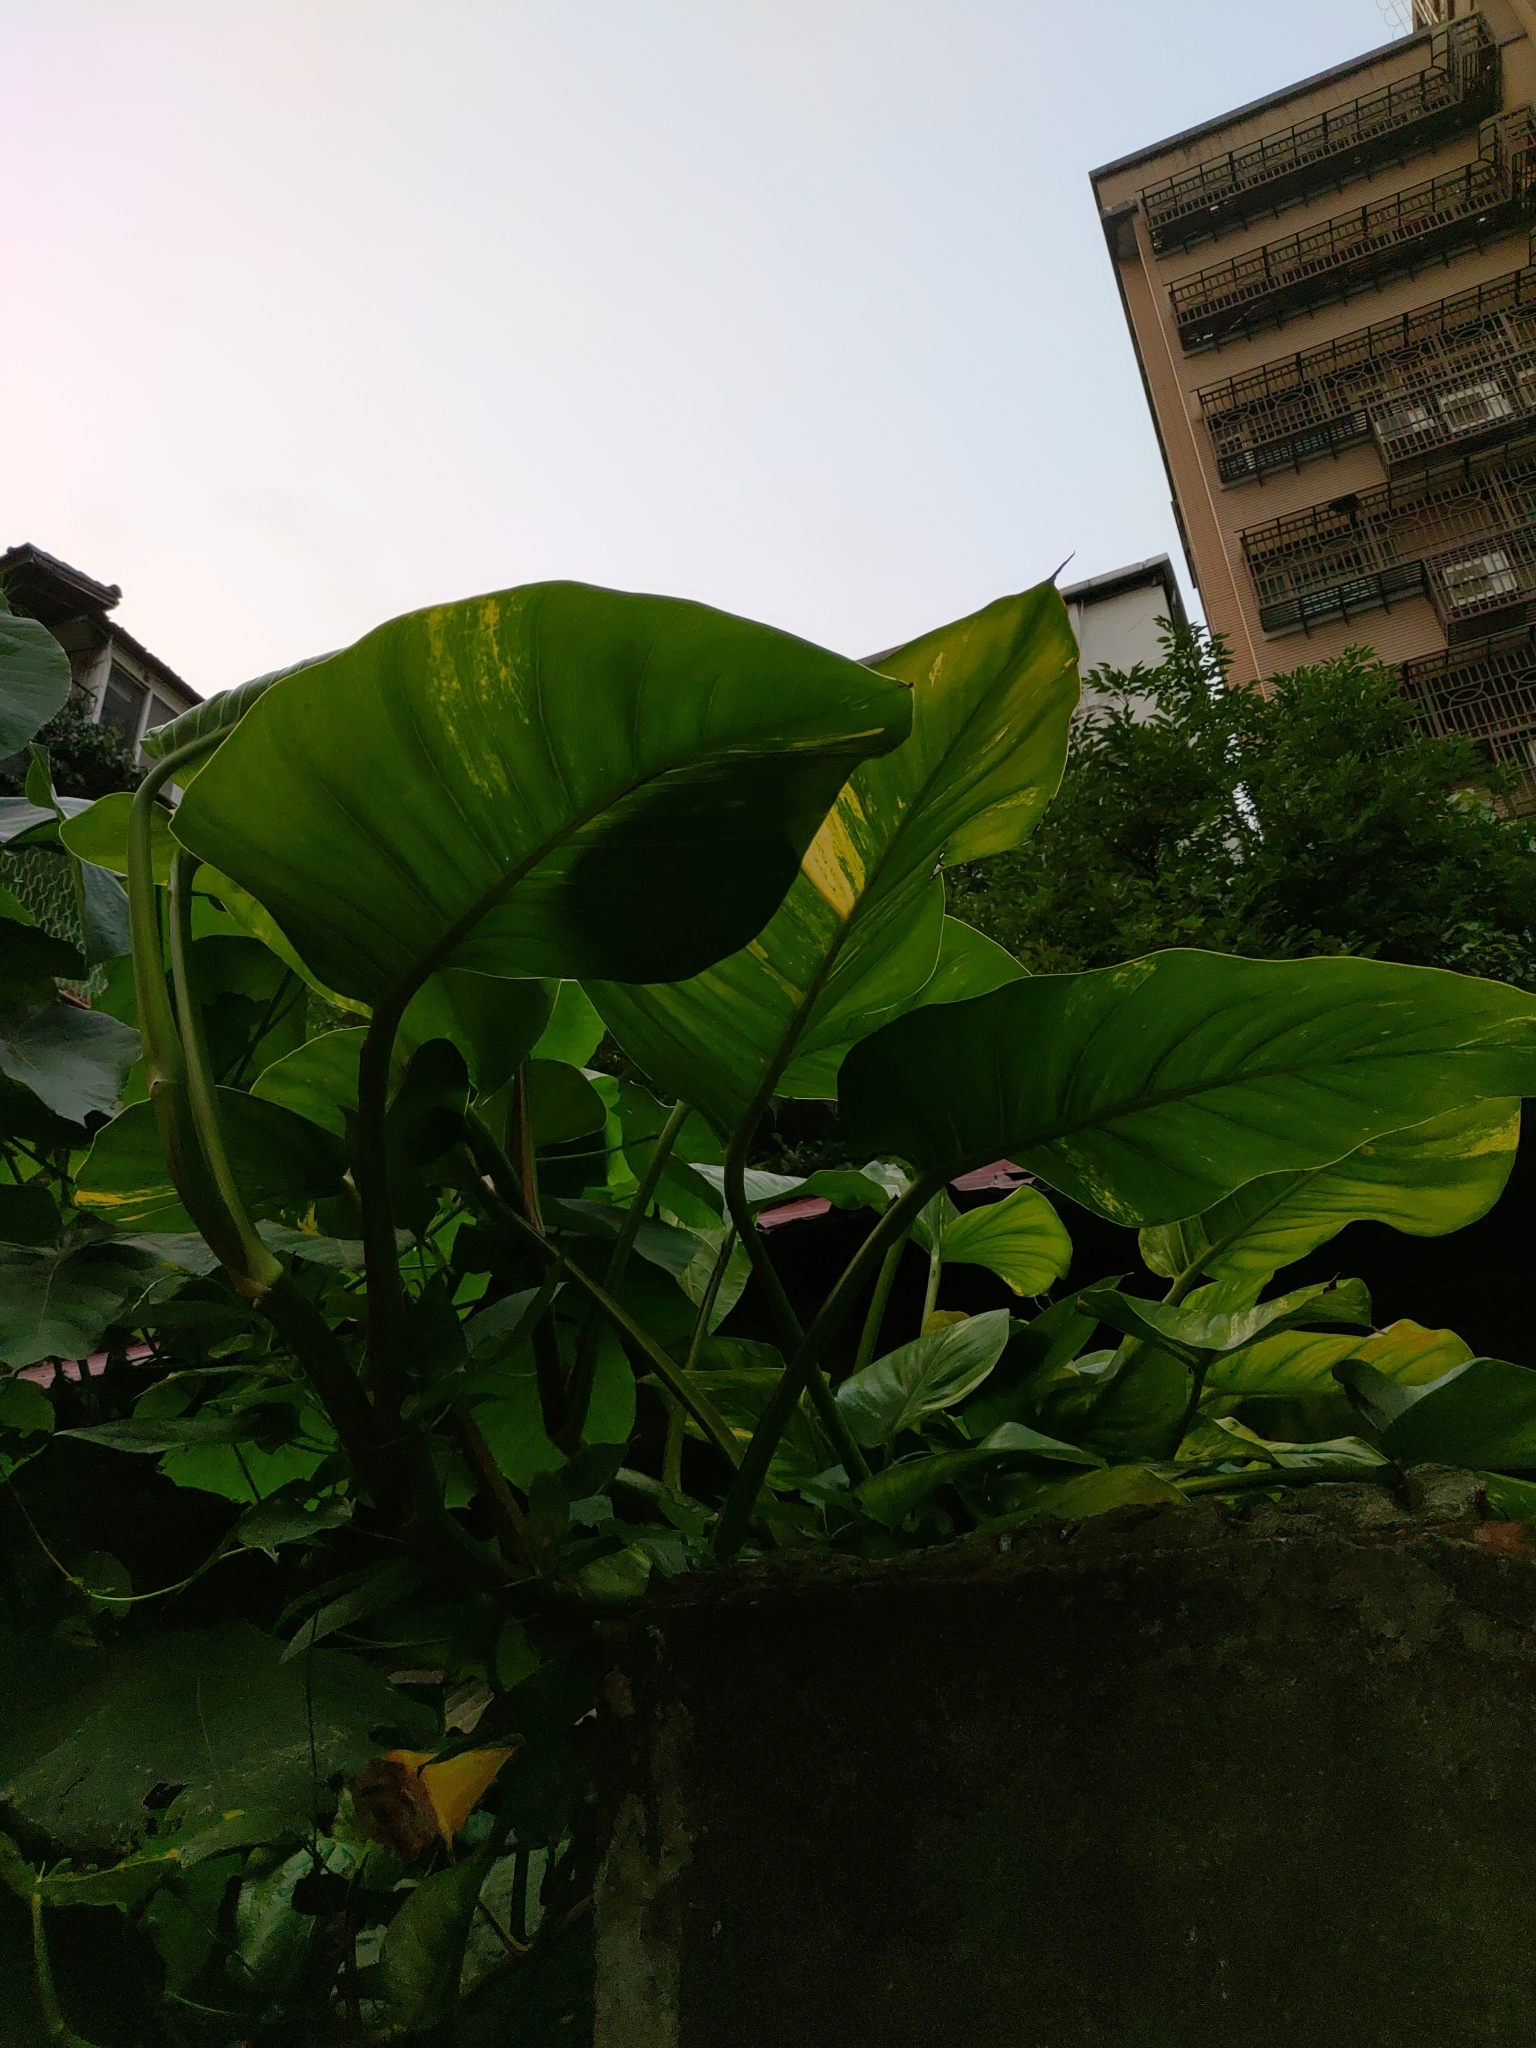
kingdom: Plantae
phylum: Tracheophyta
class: Liliopsida
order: Alismatales
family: Araceae
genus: Epipremnum
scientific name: Epipremnum aureum
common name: Golden hunter's-robe
